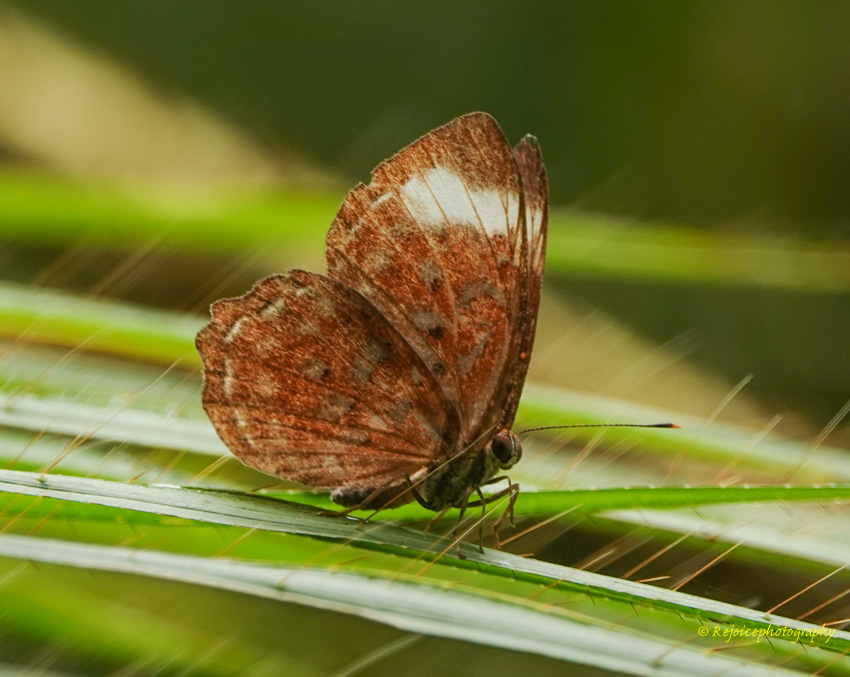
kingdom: Animalia
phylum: Arthropoda
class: Insecta
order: Lepidoptera
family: Erebidae
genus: Dysschema
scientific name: Dysschema
